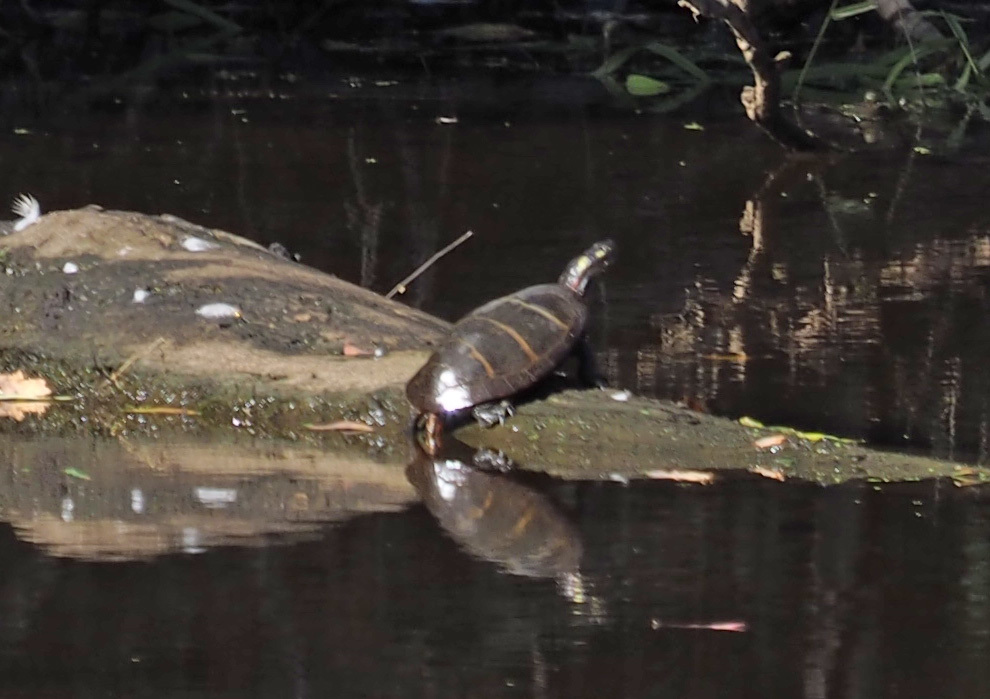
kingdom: Animalia
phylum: Chordata
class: Testudines
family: Emydidae
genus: Chrysemys
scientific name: Chrysemys picta
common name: Painted turtle
